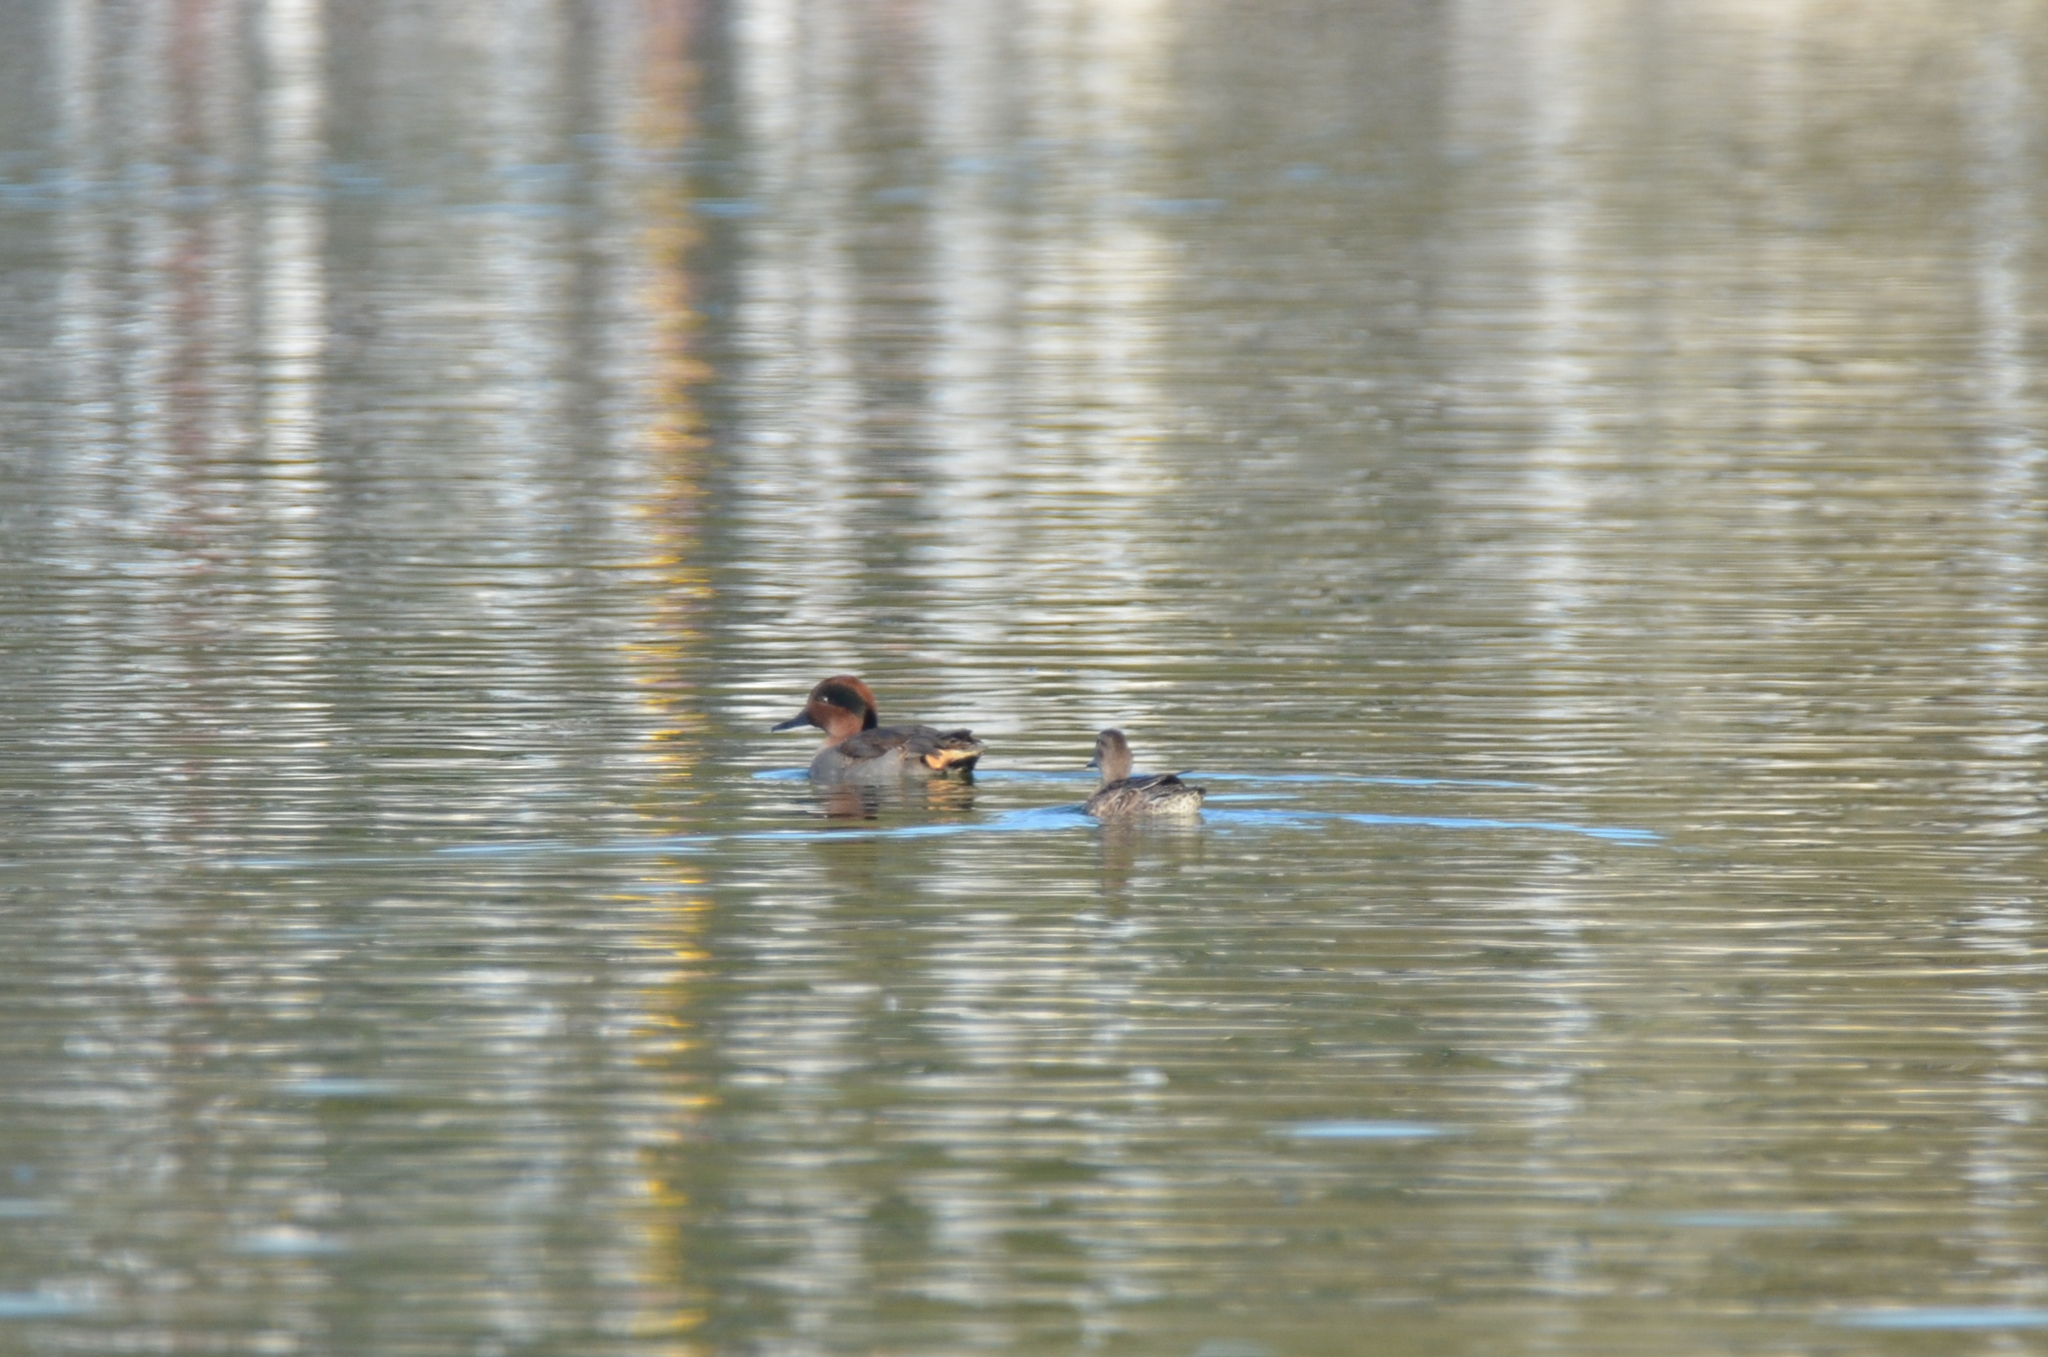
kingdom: Animalia
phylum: Chordata
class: Aves
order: Anseriformes
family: Anatidae
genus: Anas
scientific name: Anas crecca
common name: Eurasian teal
